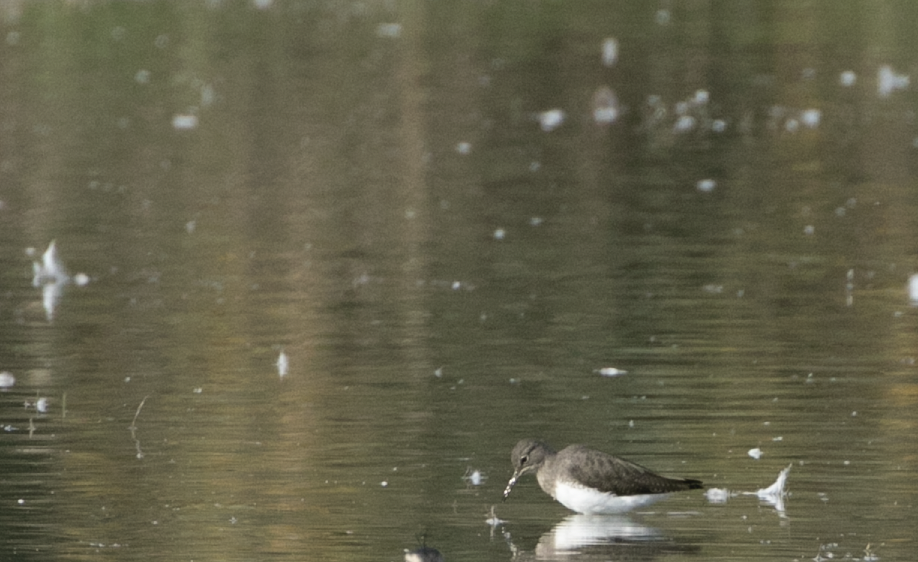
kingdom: Animalia
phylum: Chordata
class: Aves
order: Charadriiformes
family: Scolopacidae
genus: Tringa
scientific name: Tringa ochropus
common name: Green sandpiper
